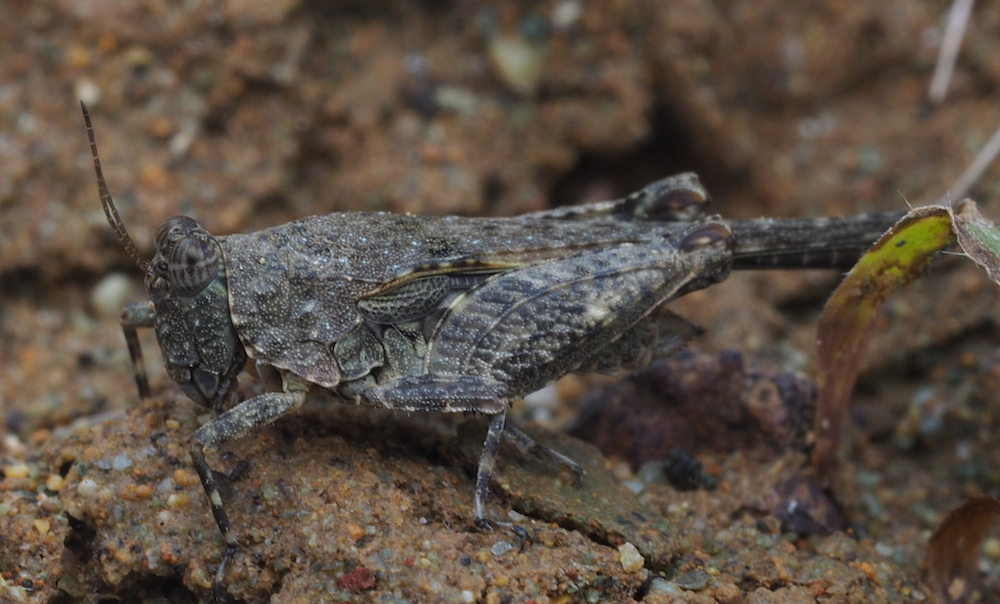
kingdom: Animalia
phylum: Arthropoda
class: Insecta
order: Orthoptera
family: Tetrigidae
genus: Paratettix
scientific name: Paratettix frey-gessnerii
